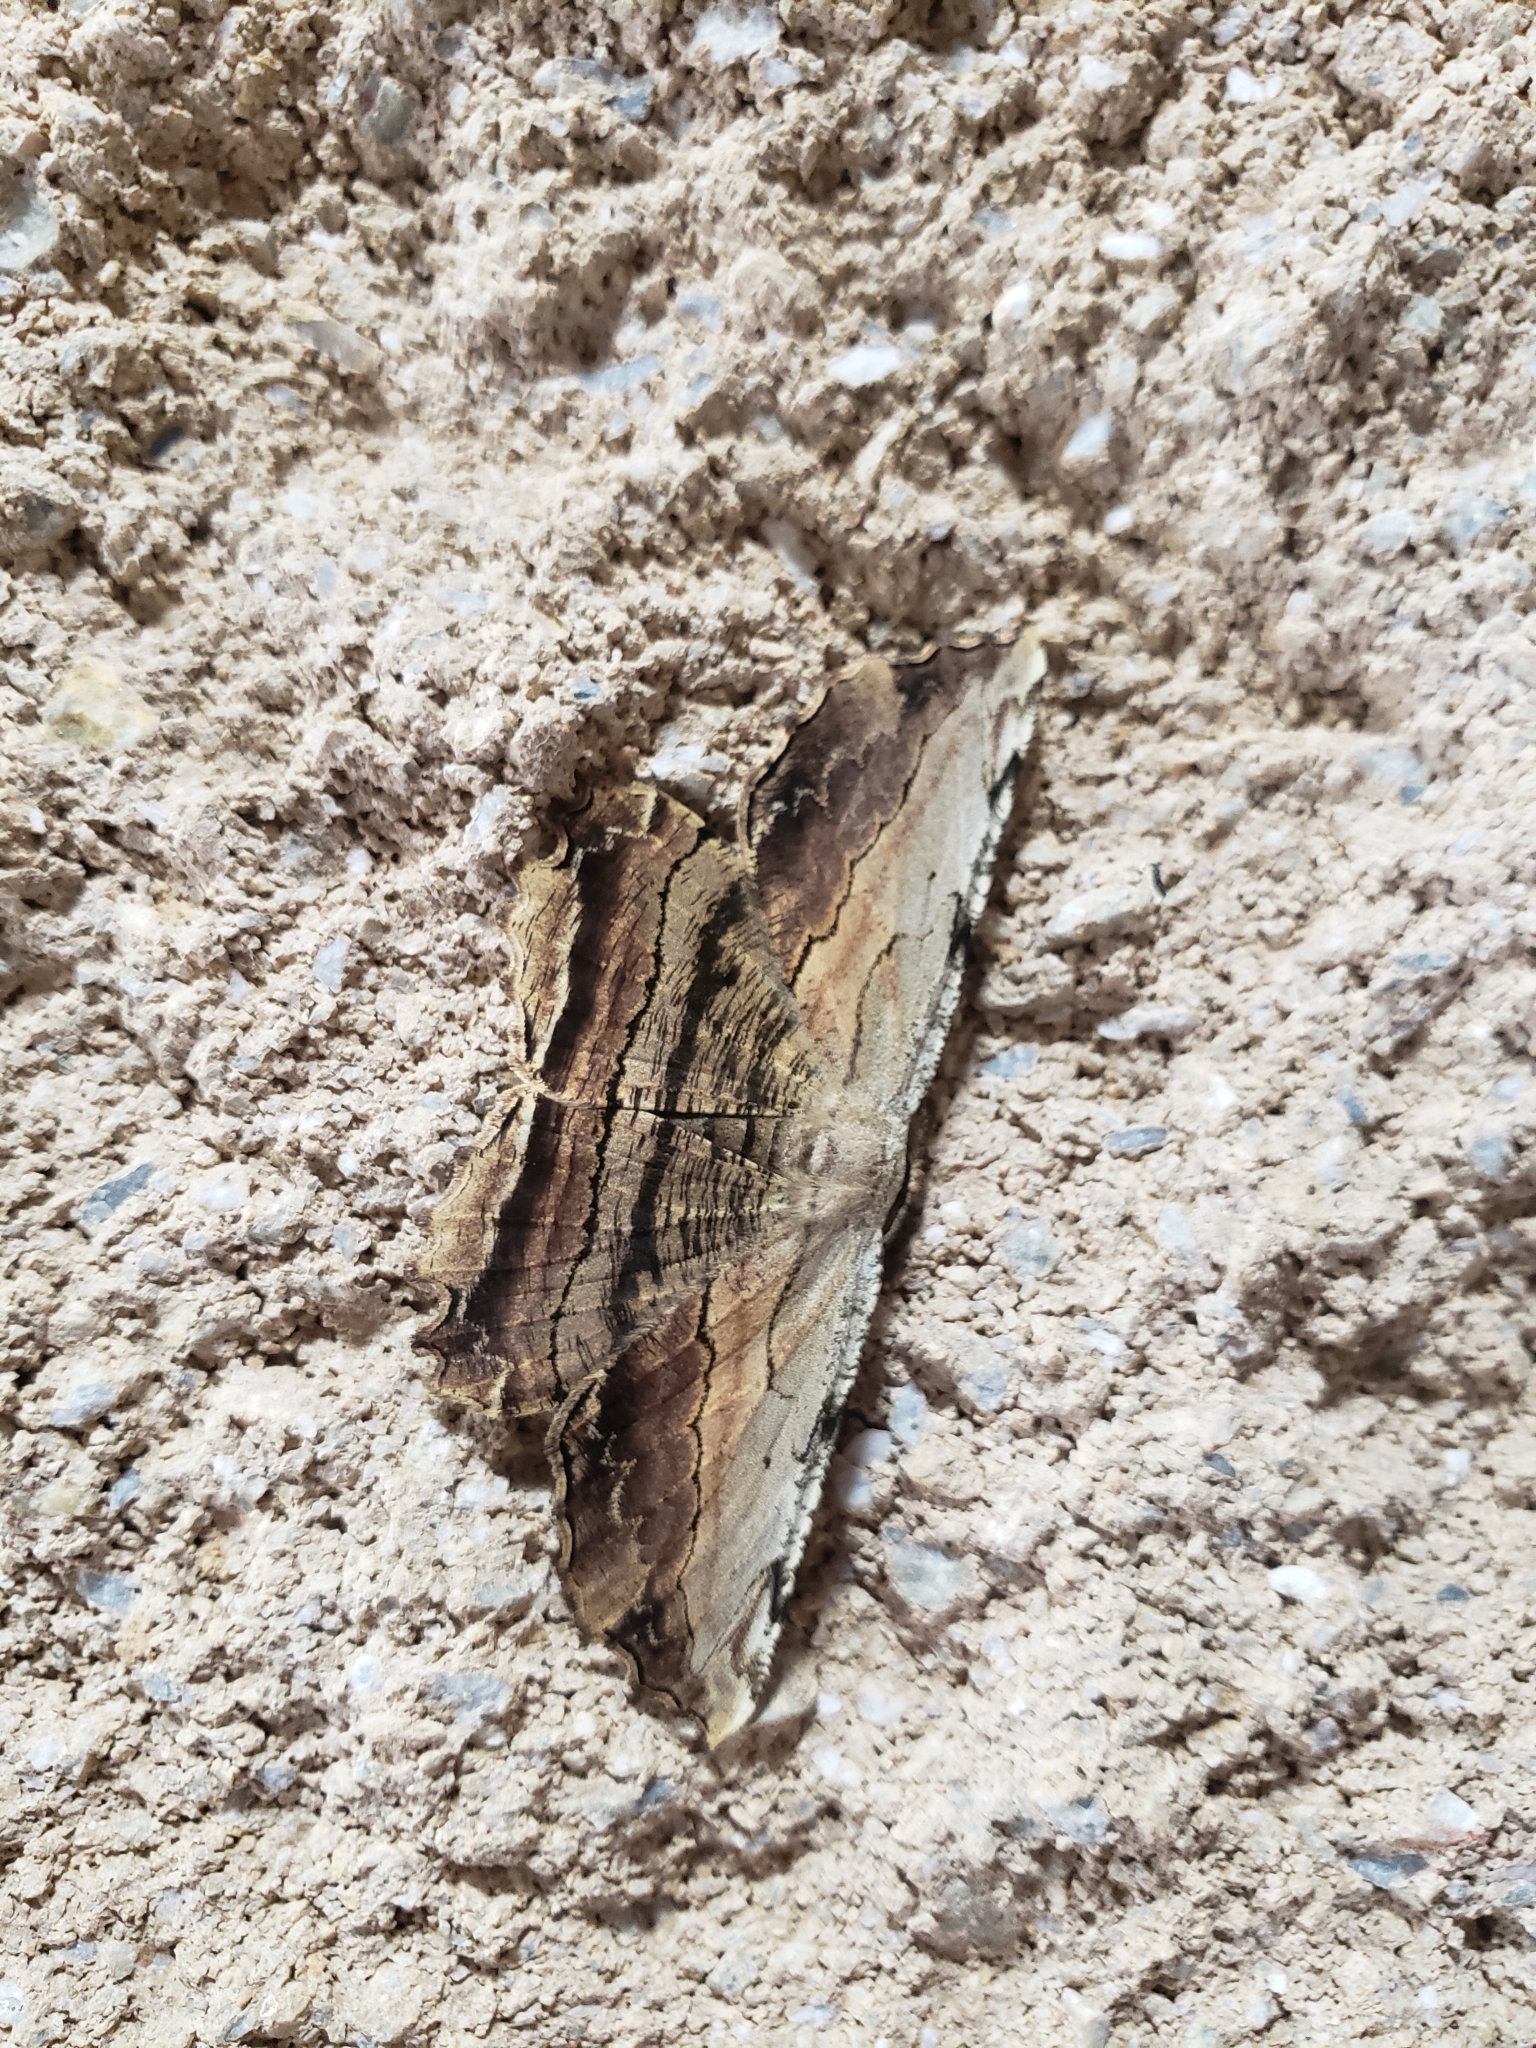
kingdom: Animalia
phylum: Arthropoda
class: Insecta
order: Lepidoptera
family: Geometridae
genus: Lytrosis
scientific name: Lytrosis unitaria
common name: Common lytrosis
